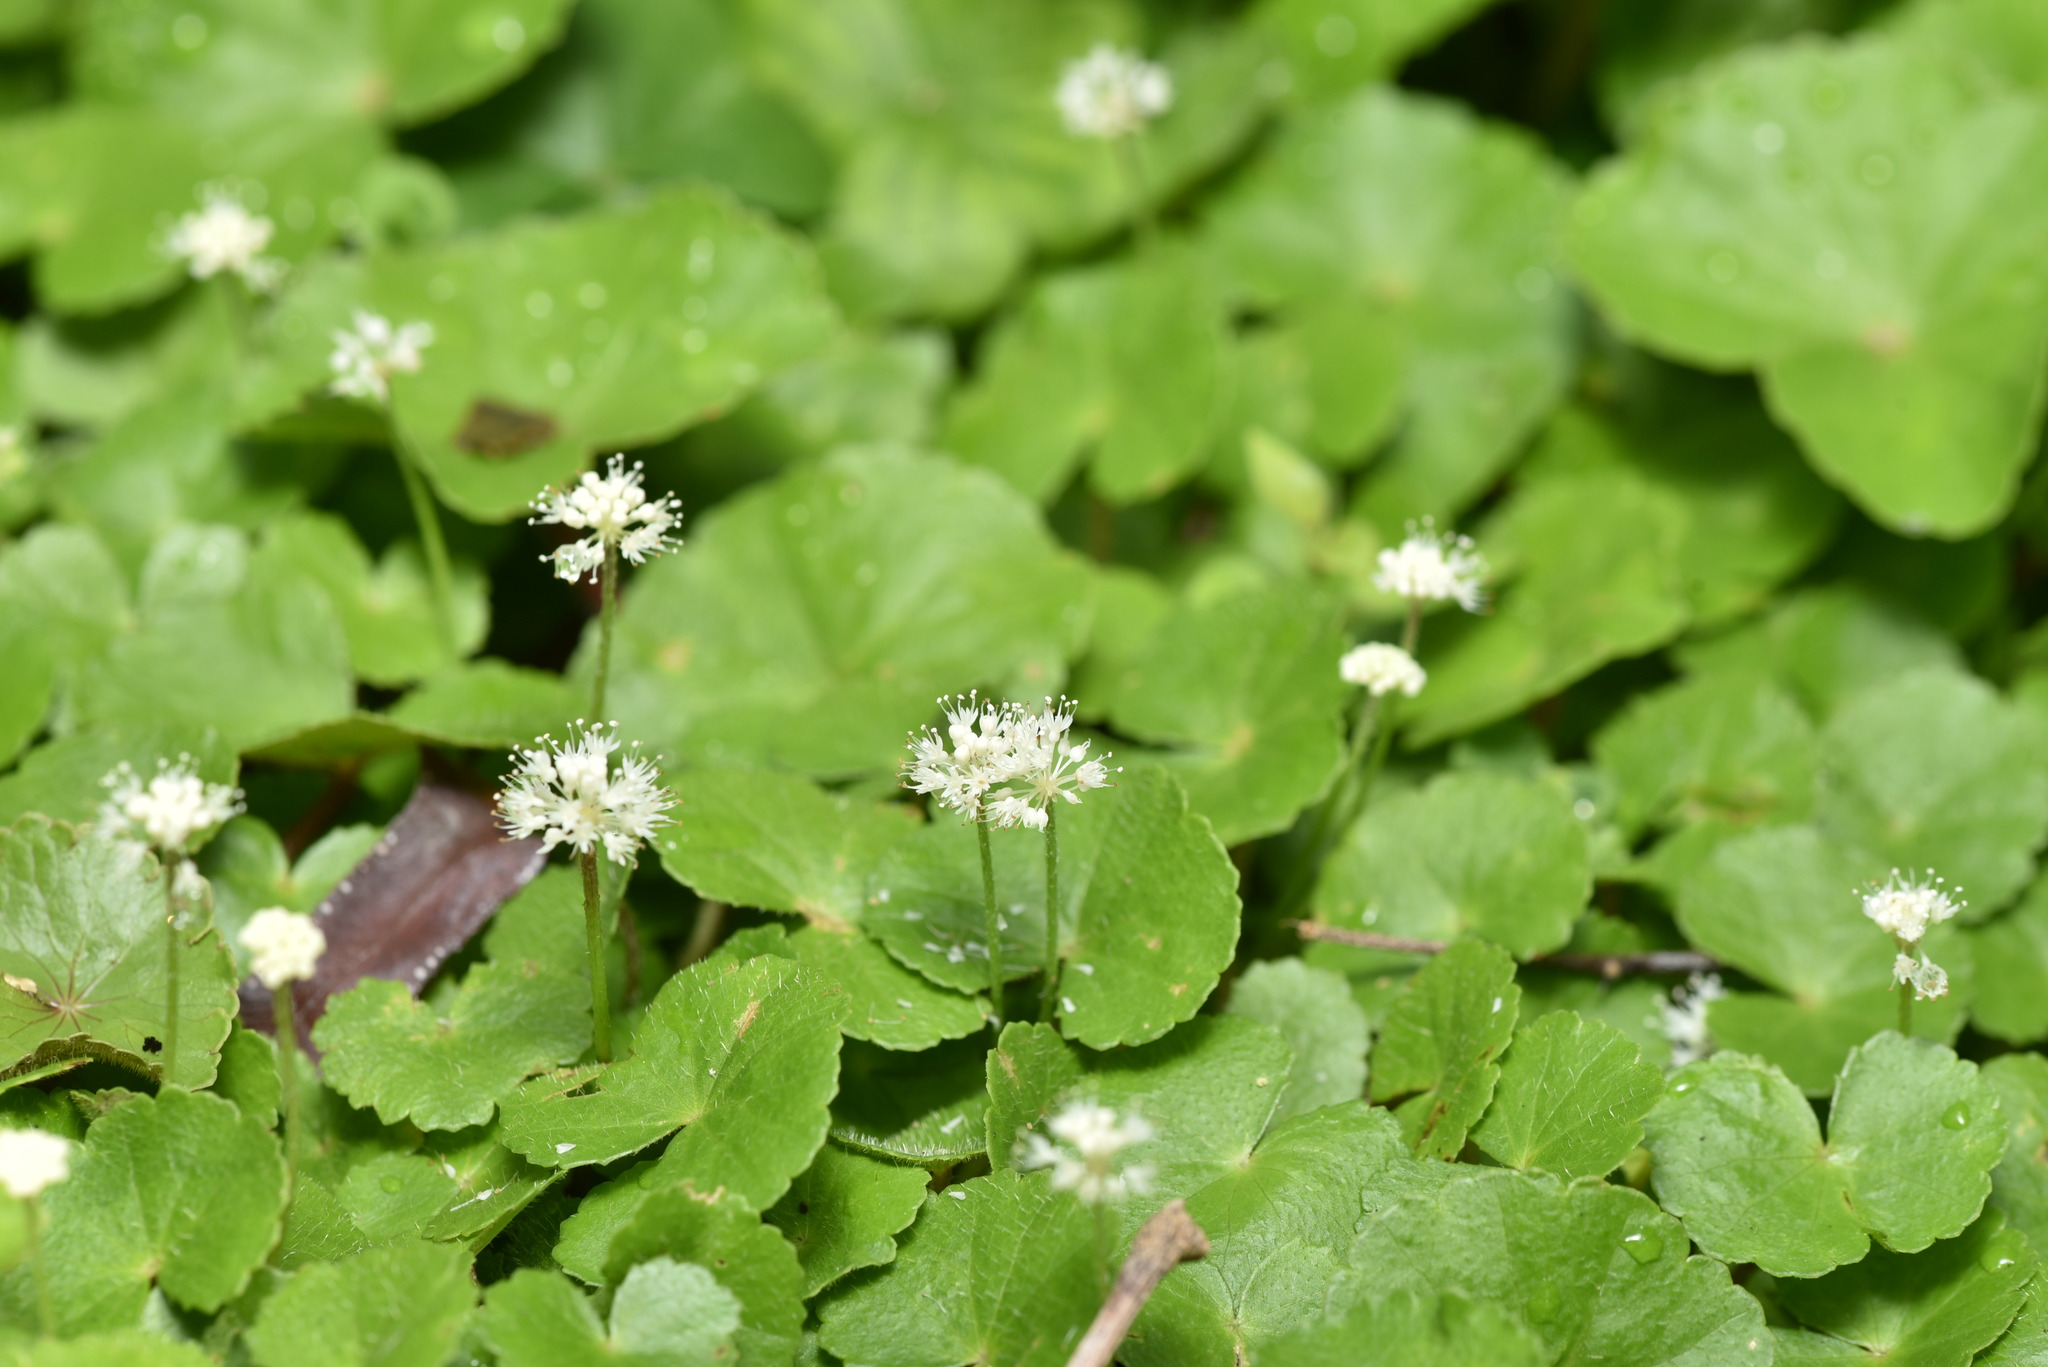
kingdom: Plantae
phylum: Tracheophyta
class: Magnoliopsida
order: Apiales
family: Araliaceae
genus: Hydrocotyle
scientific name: Hydrocotyle leucocephala
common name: Brazilian pennywort
